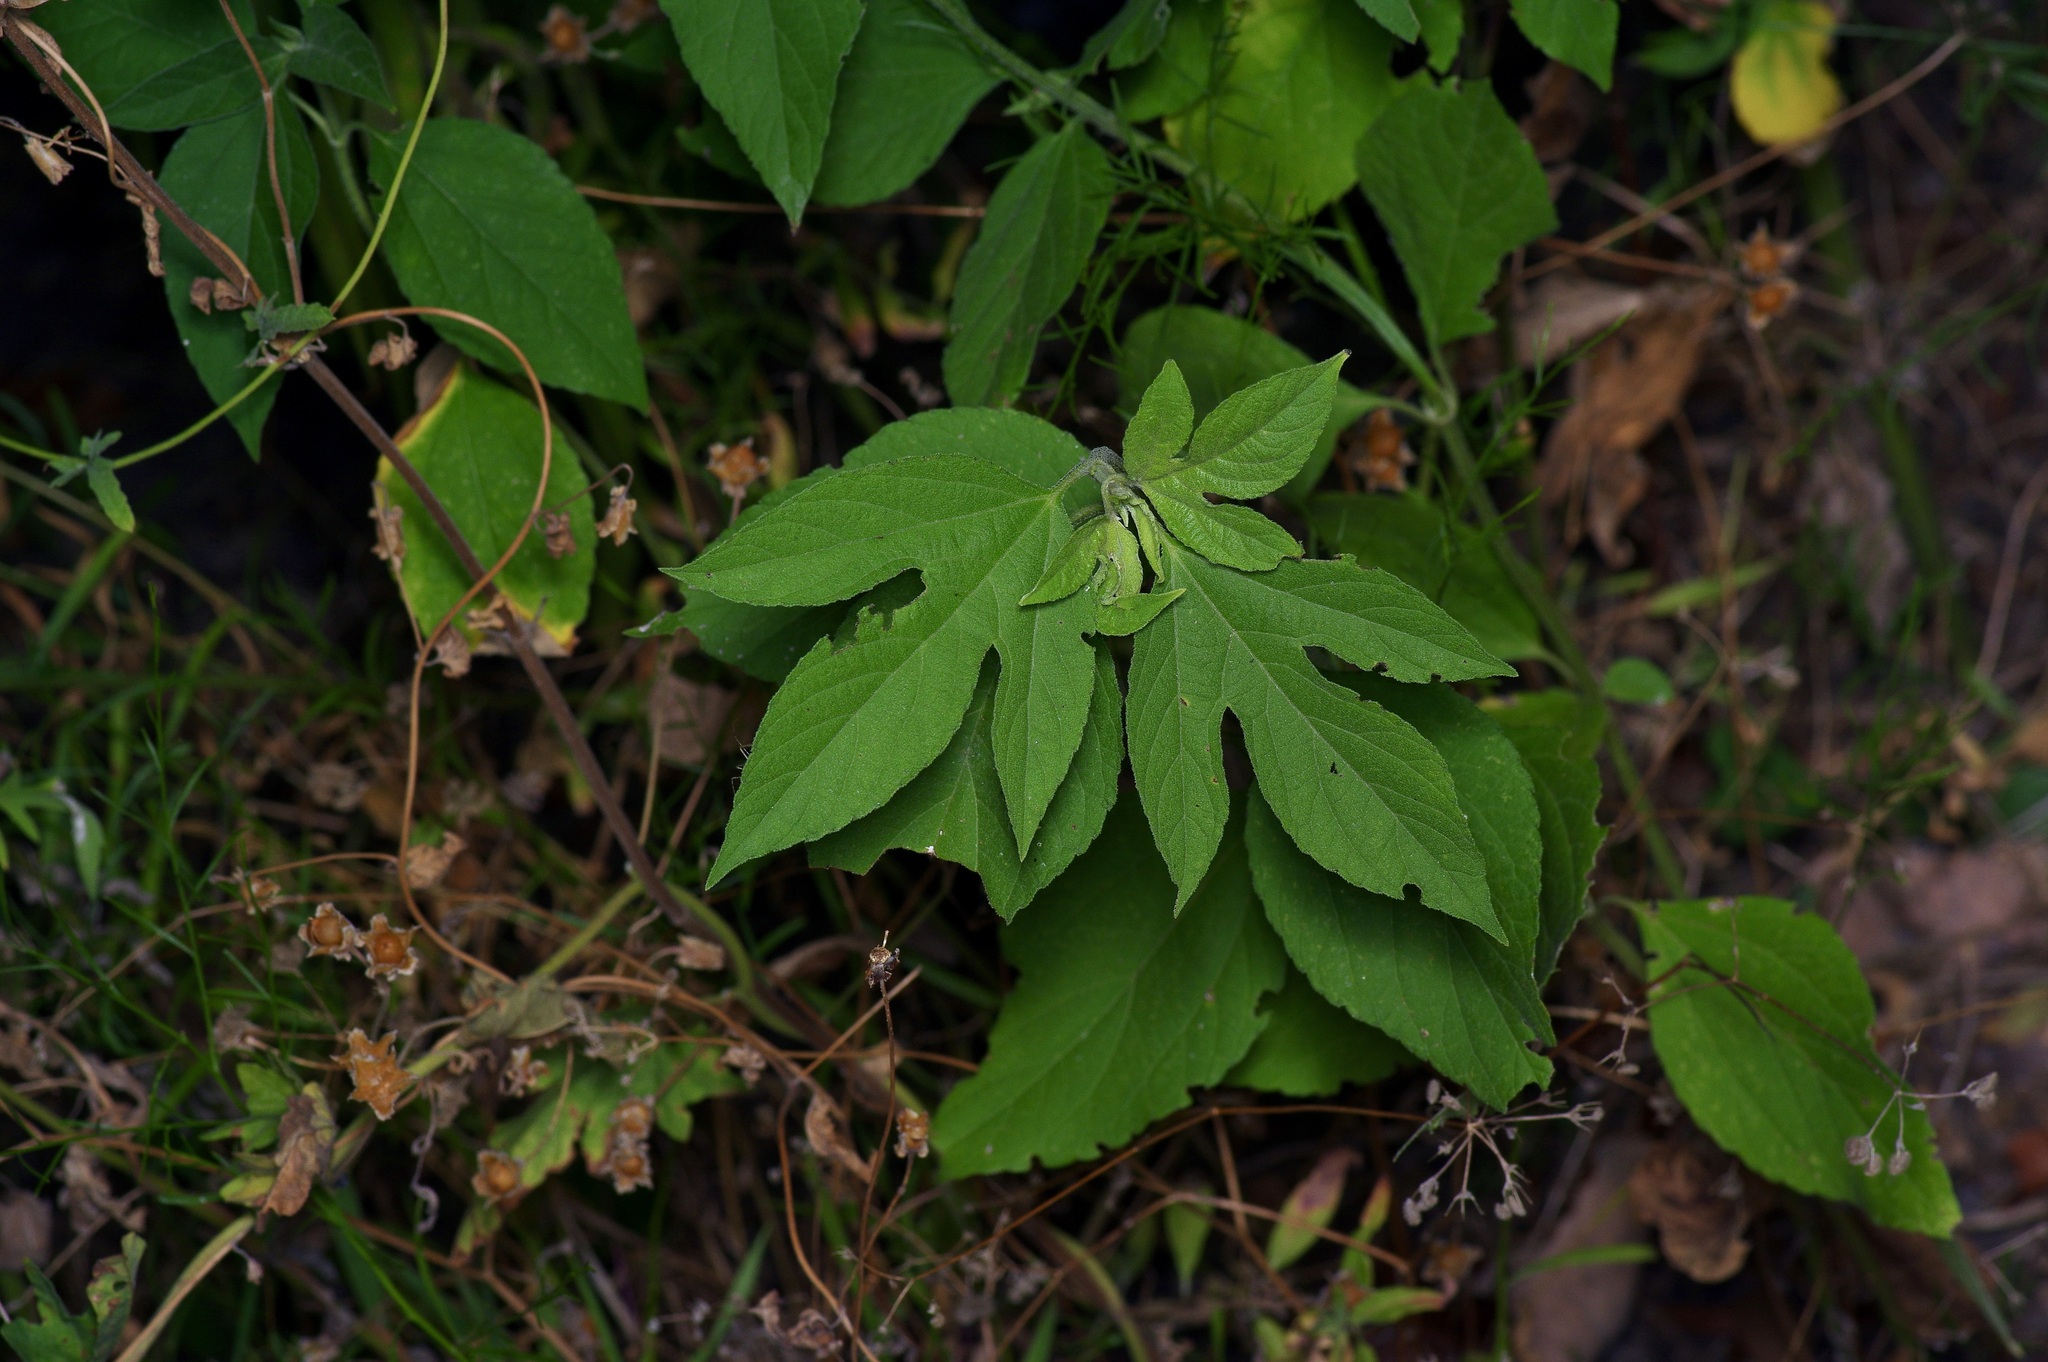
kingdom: Plantae
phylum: Tracheophyta
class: Magnoliopsida
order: Asterales
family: Asteraceae
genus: Ambrosia
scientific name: Ambrosia trifida
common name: Giant ragweed
